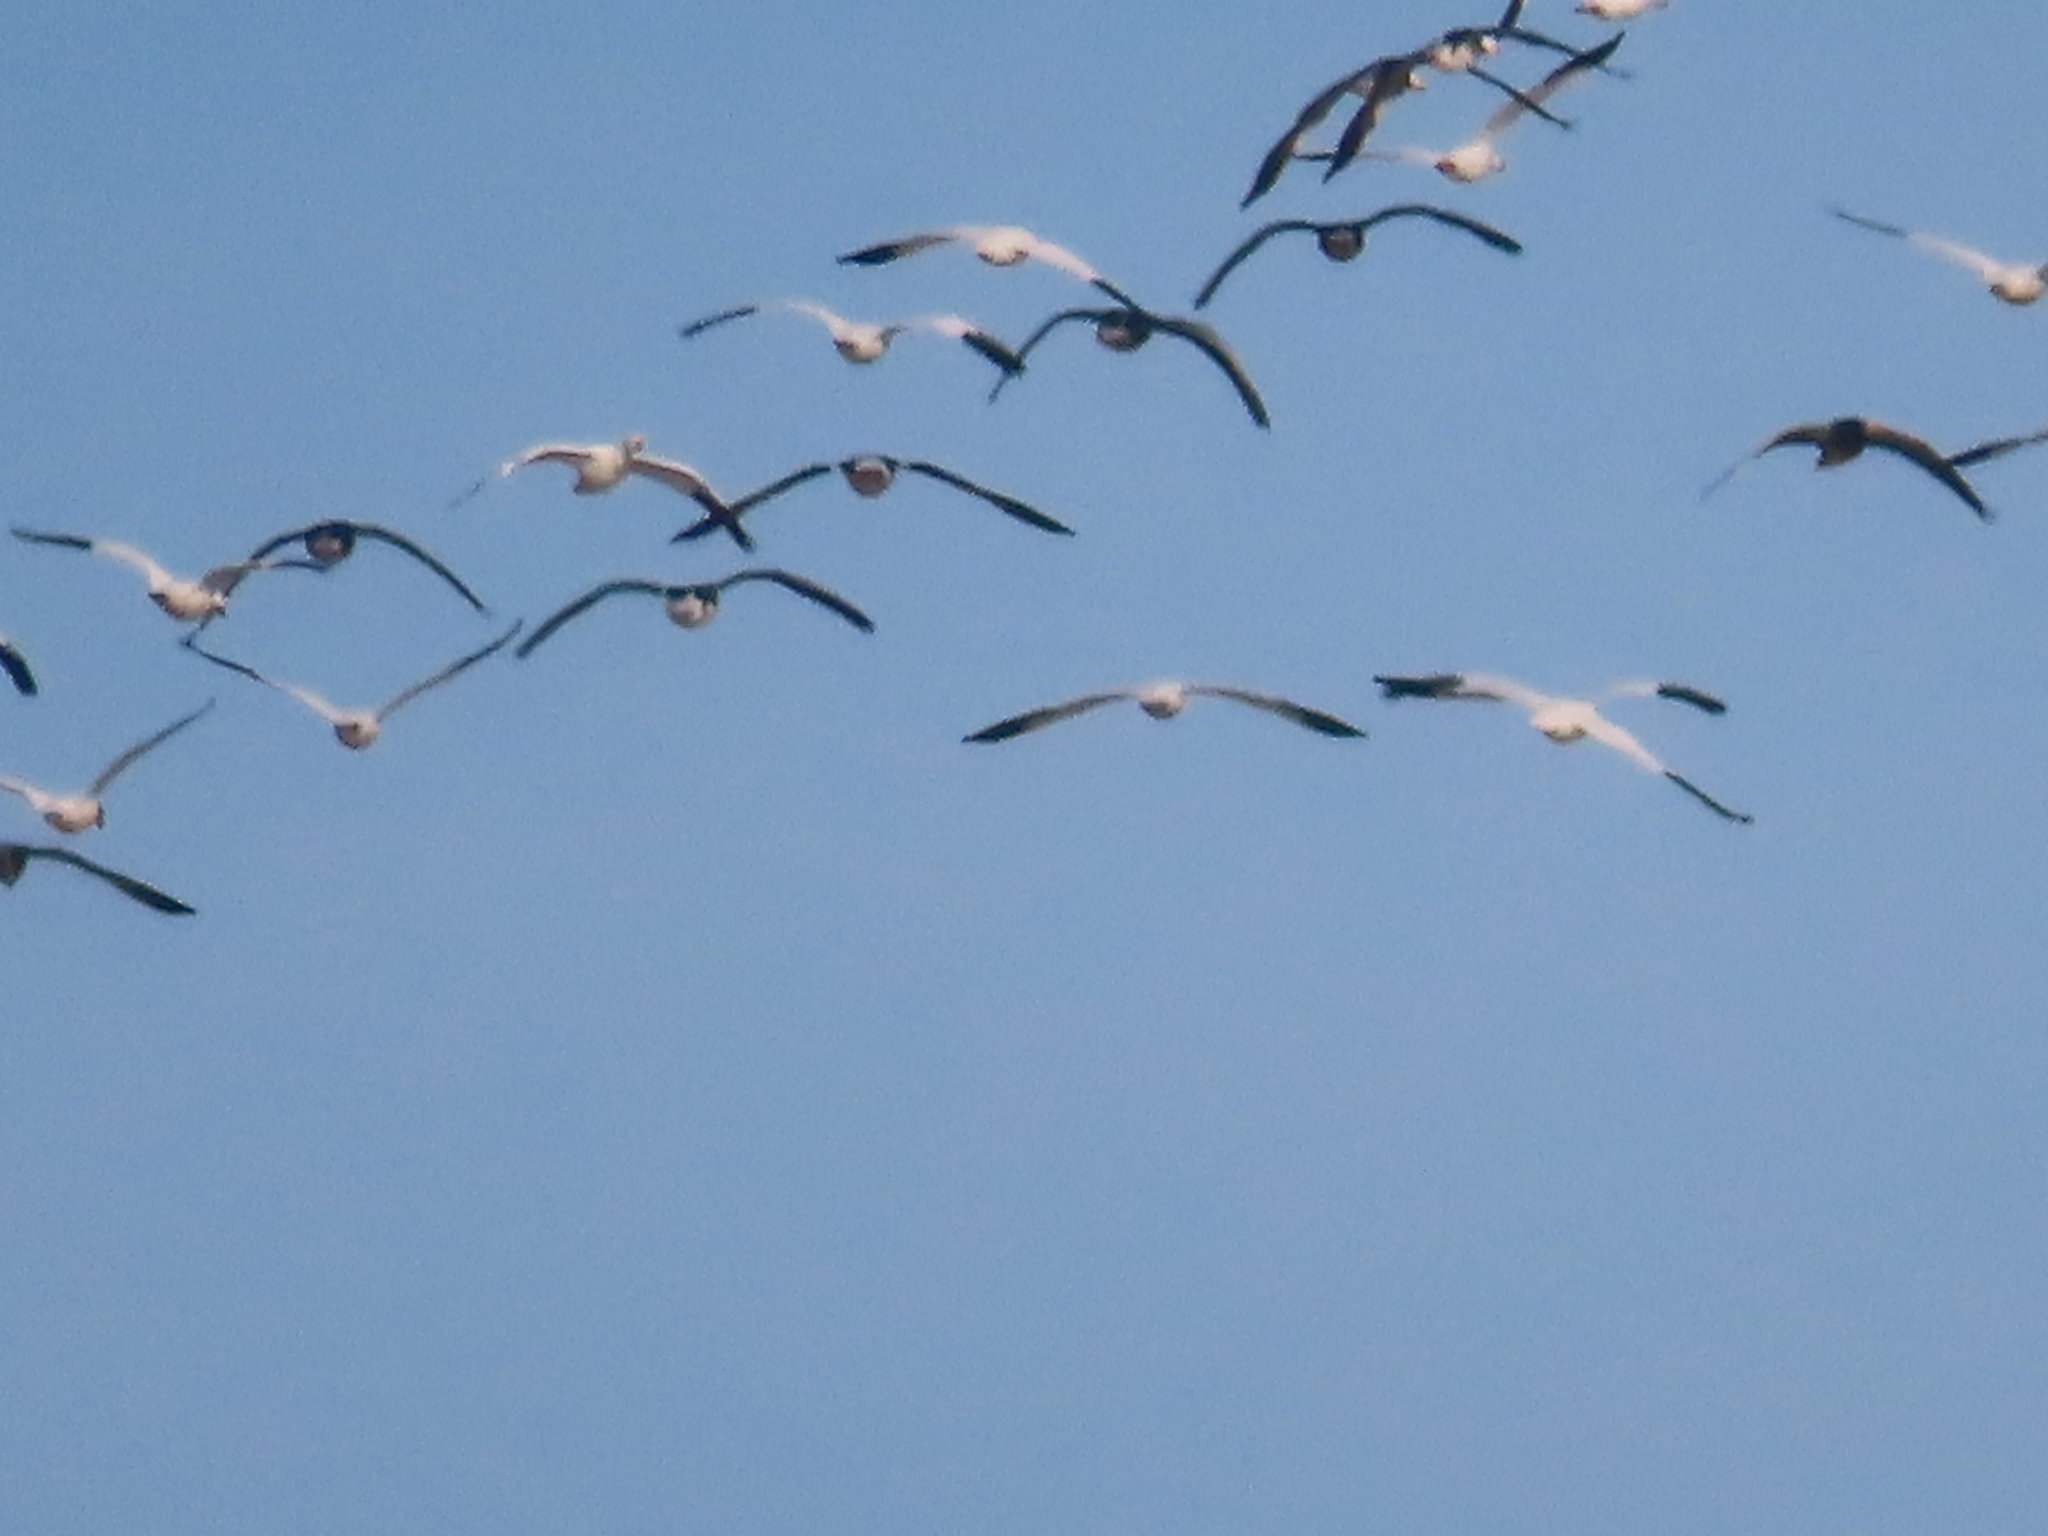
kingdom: Animalia
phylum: Chordata
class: Aves
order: Anseriformes
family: Anatidae
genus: Anser
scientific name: Anser caerulescens
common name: Snow goose
